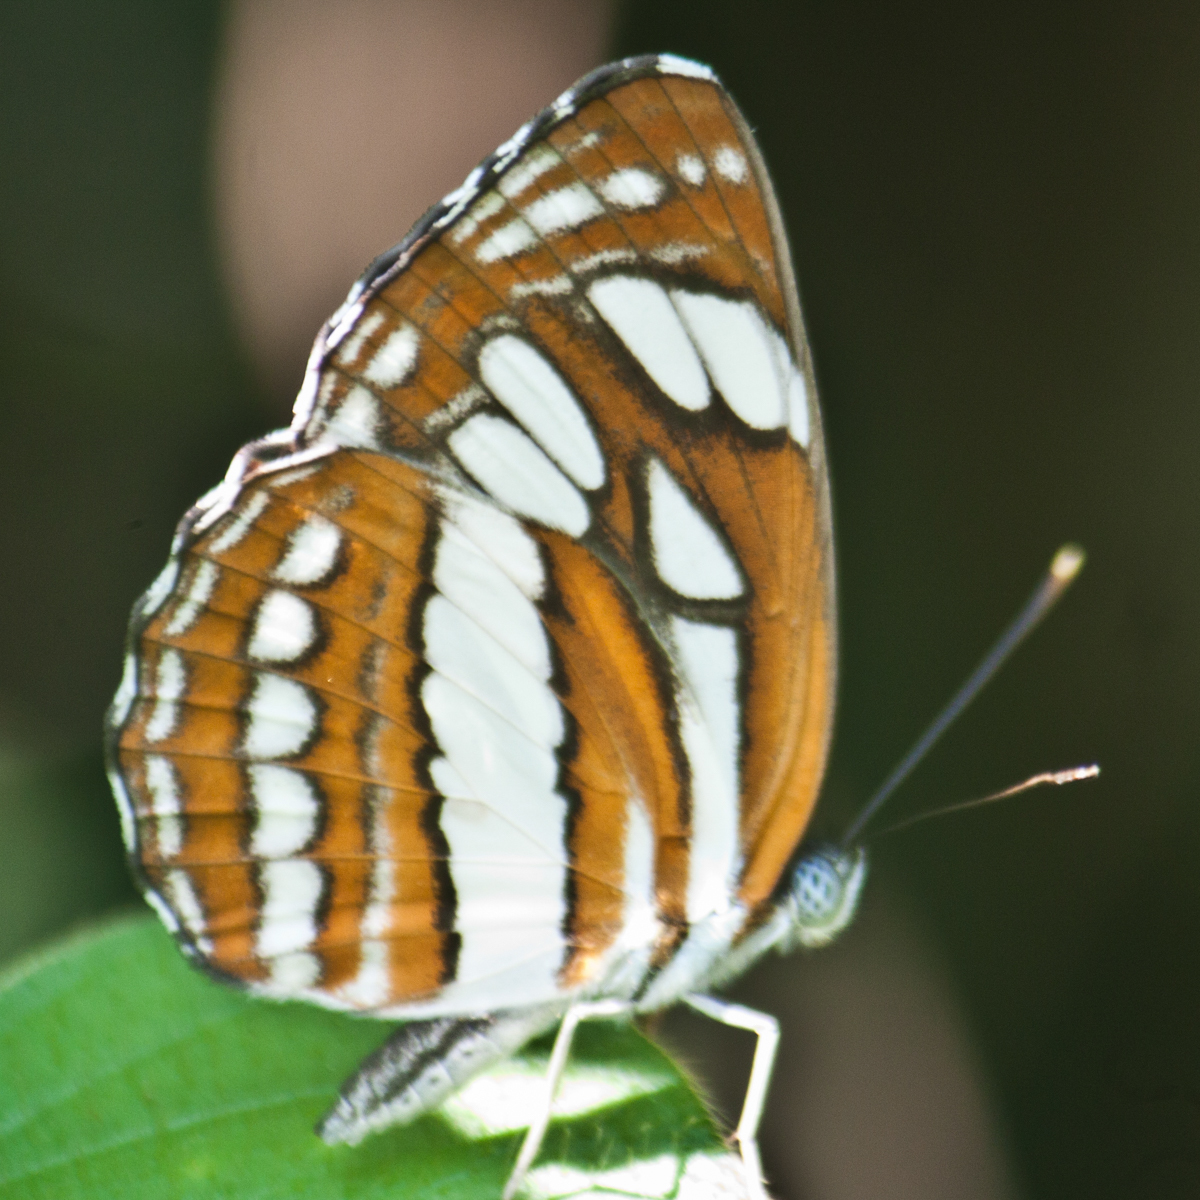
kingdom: Animalia
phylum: Arthropoda
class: Insecta
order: Lepidoptera
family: Nymphalidae
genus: Neptis
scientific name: Neptis hylas
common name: Common sailer
